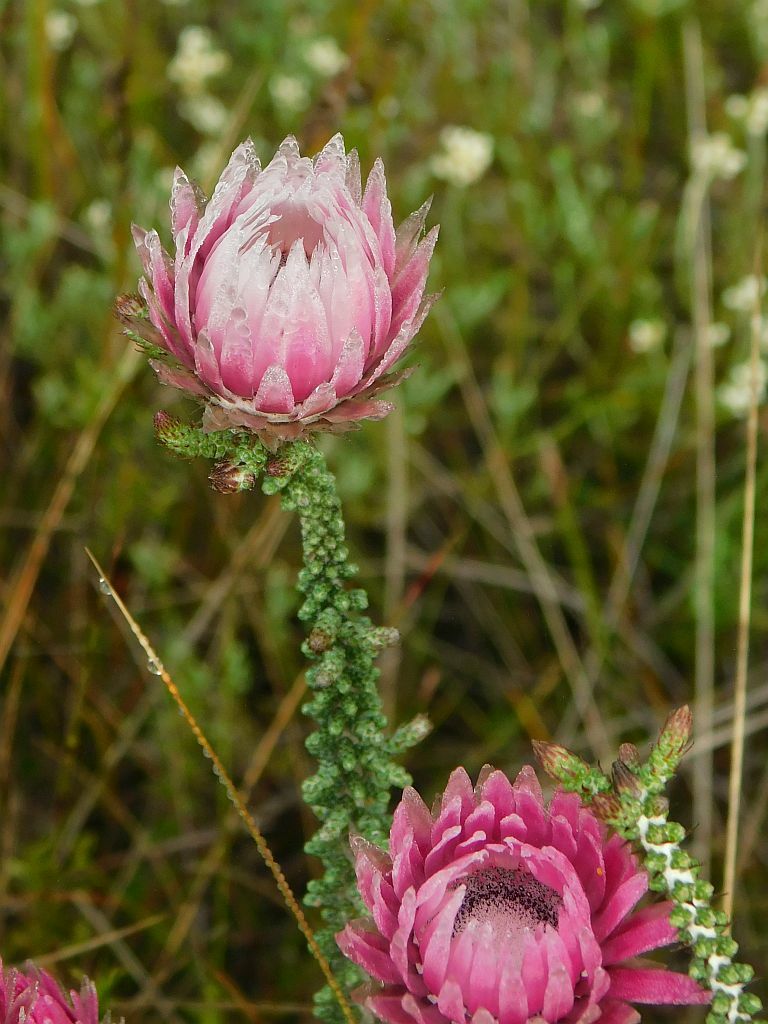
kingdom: Plantae
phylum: Tracheophyta
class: Magnoliopsida
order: Asterales
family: Asteraceae
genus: Phaenocoma
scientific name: Phaenocoma prolifera
